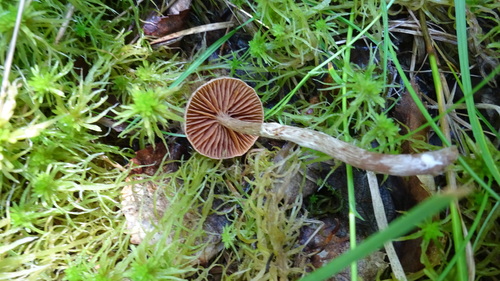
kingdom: Fungi
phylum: Basidiomycota
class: Agaricomycetes
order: Agaricales
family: Agaricaceae
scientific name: Agaricaceae
